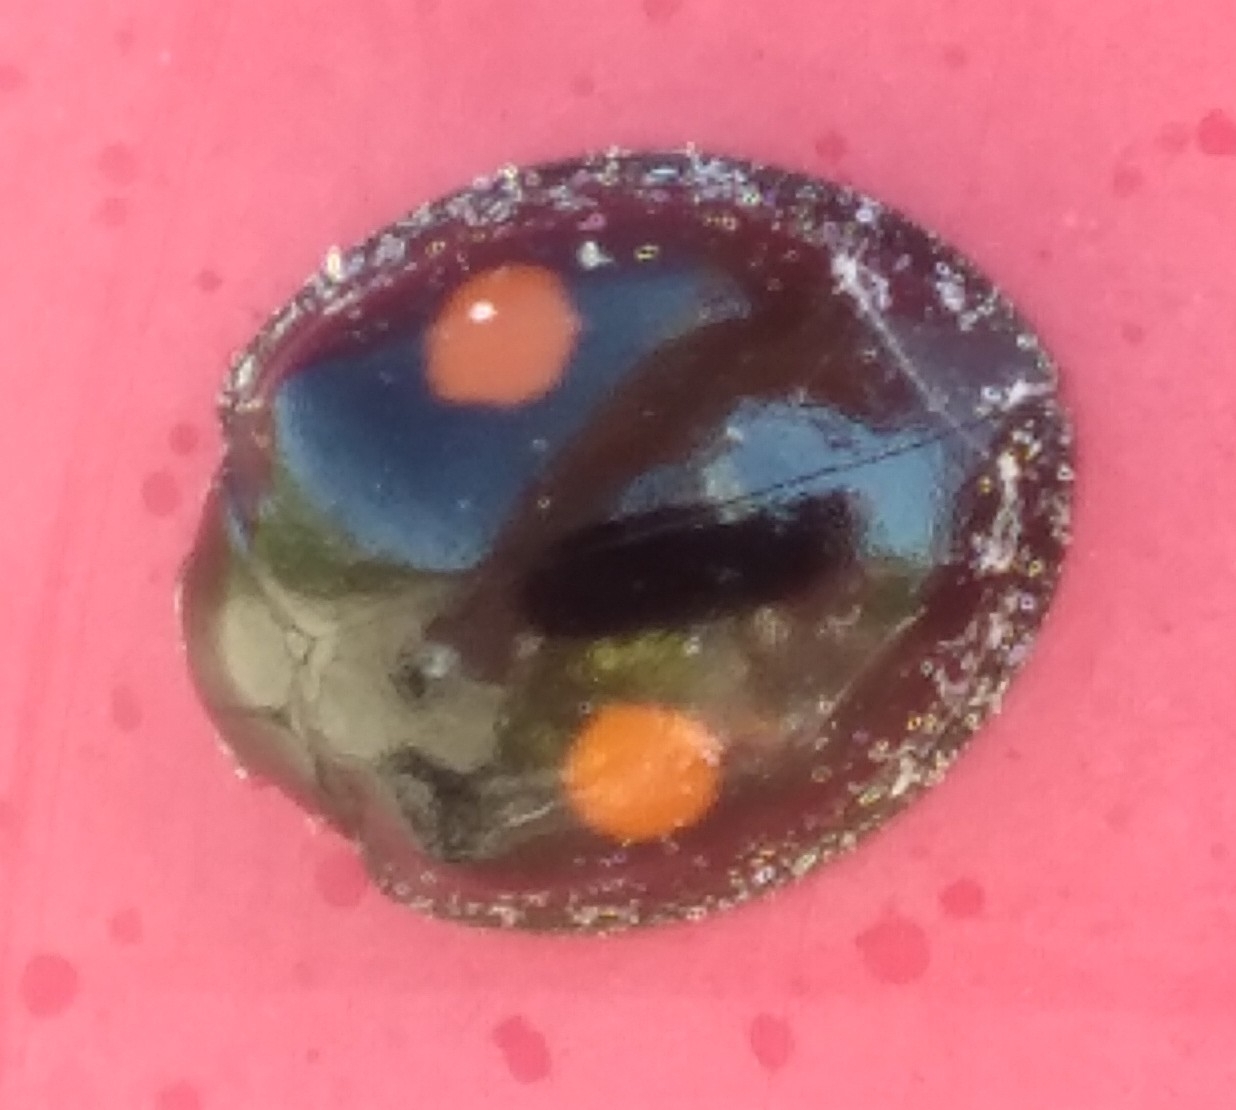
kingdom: Animalia
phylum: Arthropoda
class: Insecta
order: Coleoptera
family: Coccinellidae
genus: Chilocorus
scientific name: Chilocorus stigma
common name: Twicestabbed lady beetle
